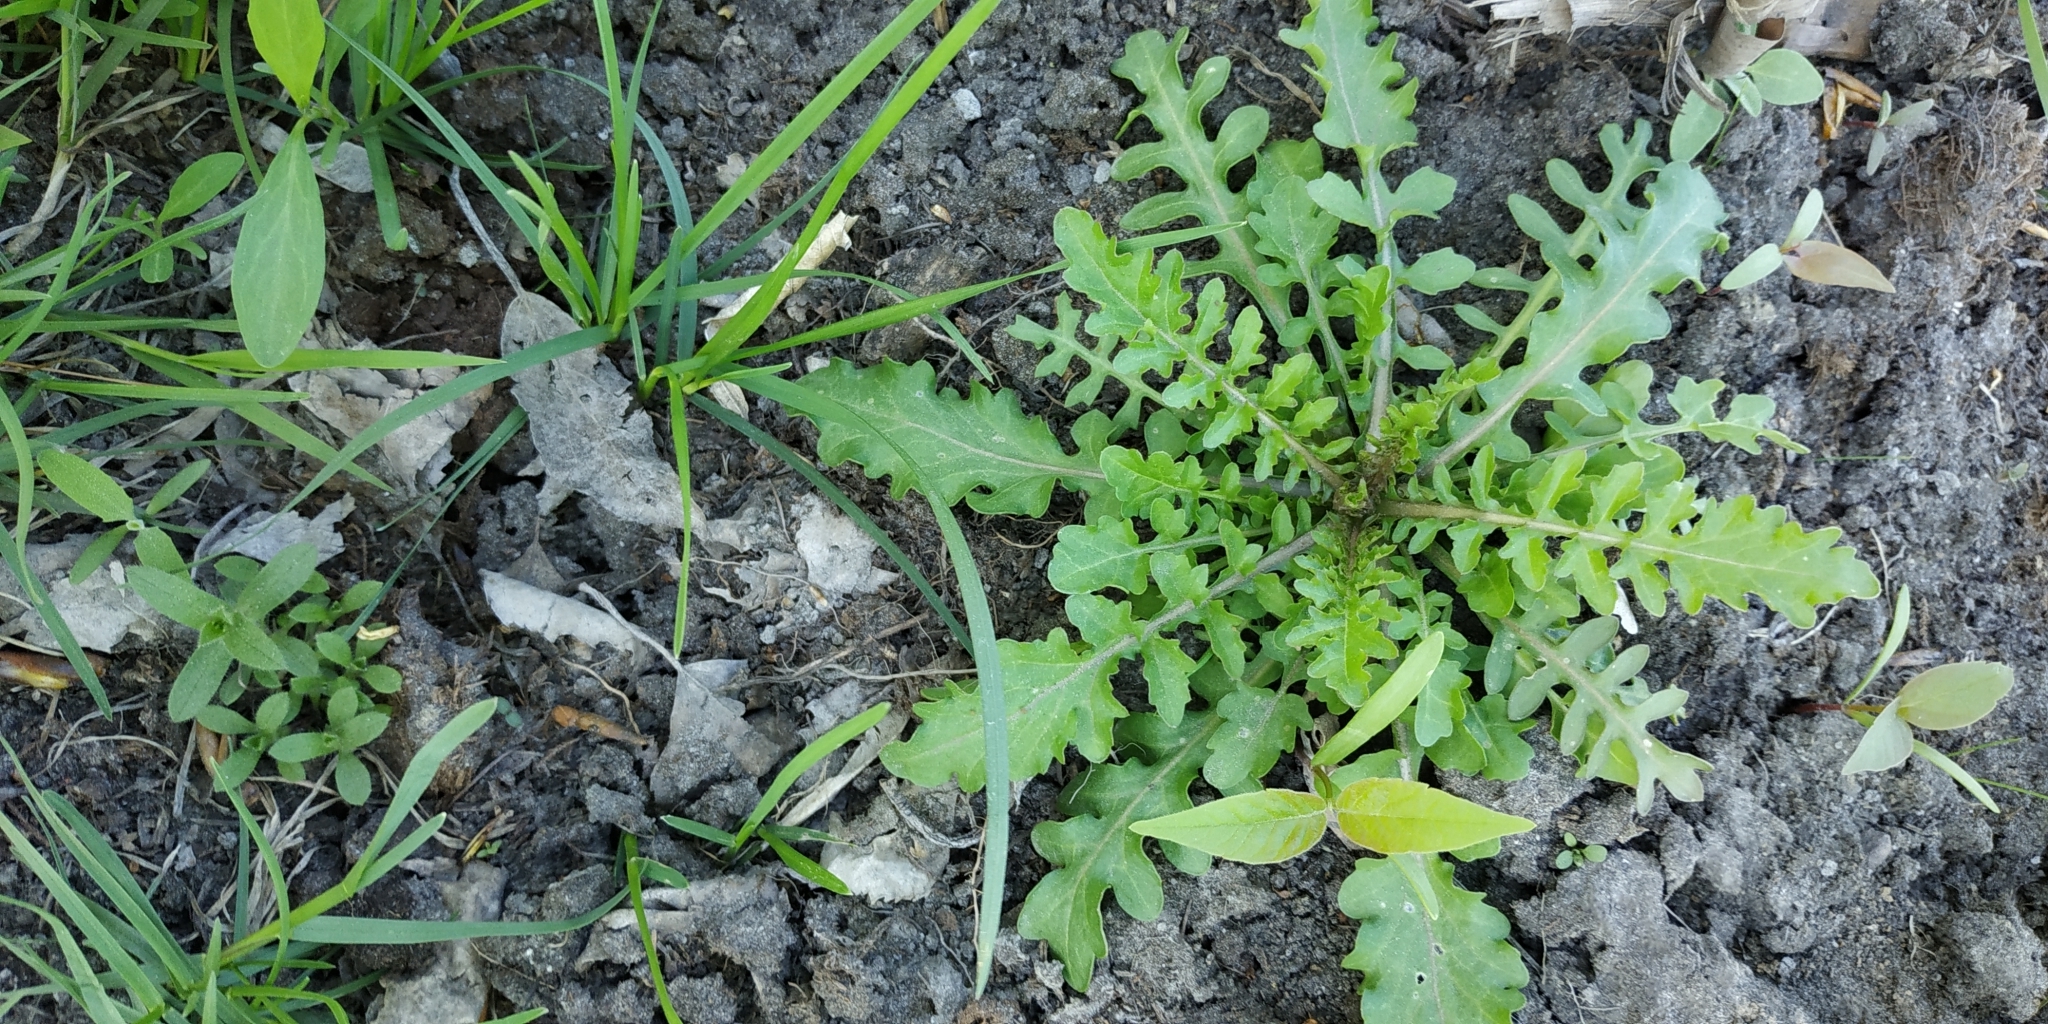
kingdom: Plantae
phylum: Tracheophyta
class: Magnoliopsida
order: Brassicales
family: Brassicaceae
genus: Rorippa
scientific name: Rorippa palustris
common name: Marsh yellow-cress
